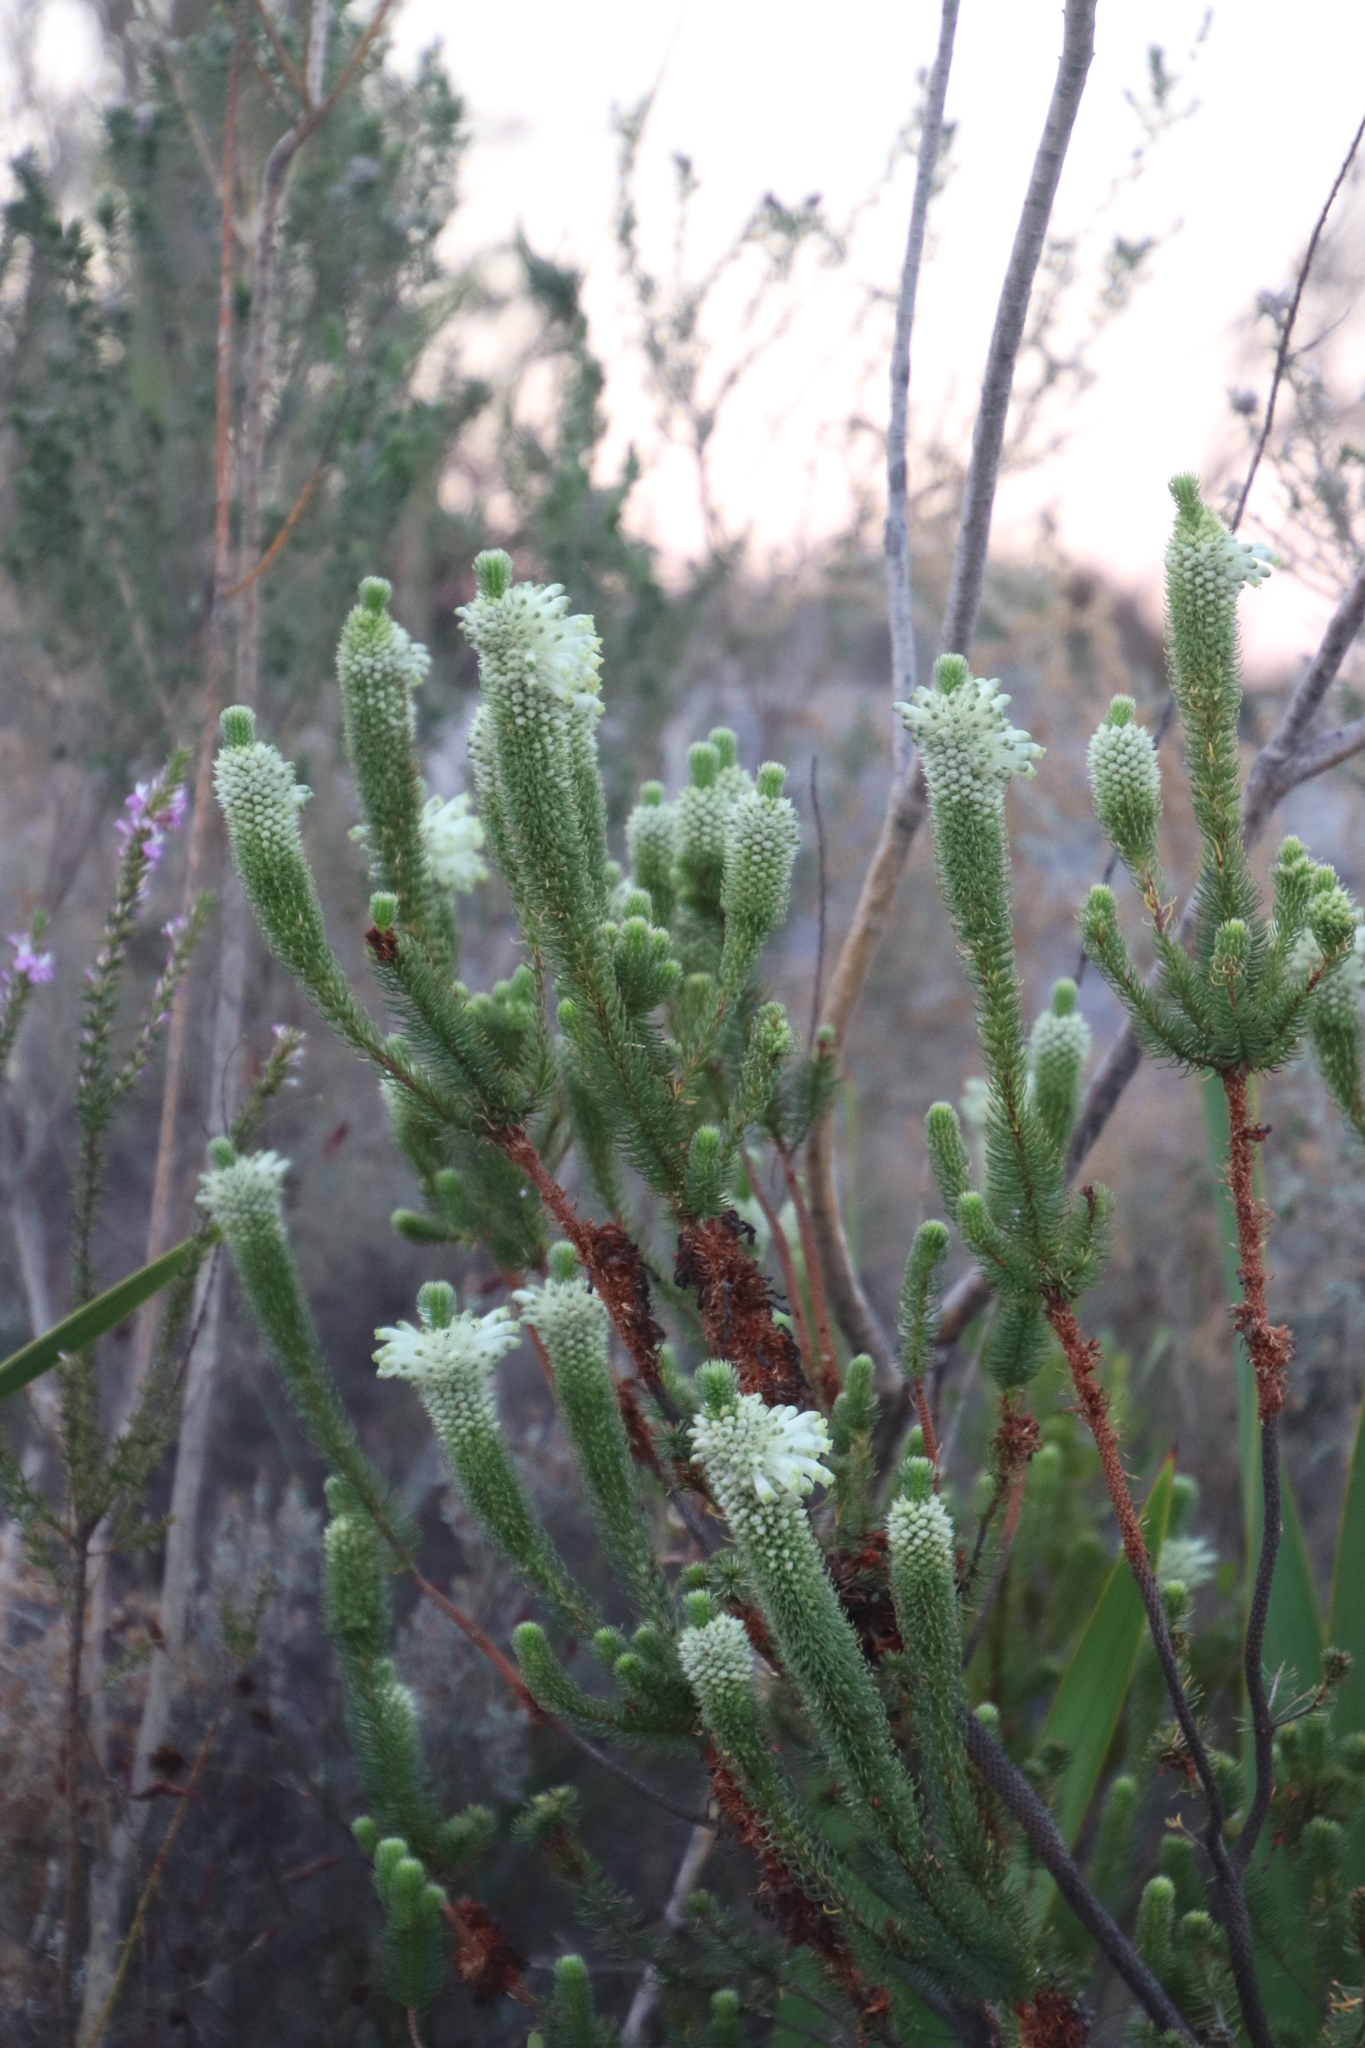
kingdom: Plantae
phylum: Tracheophyta
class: Magnoliopsida
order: Ericales
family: Ericaceae
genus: Erica
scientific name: Erica sessiliflora
